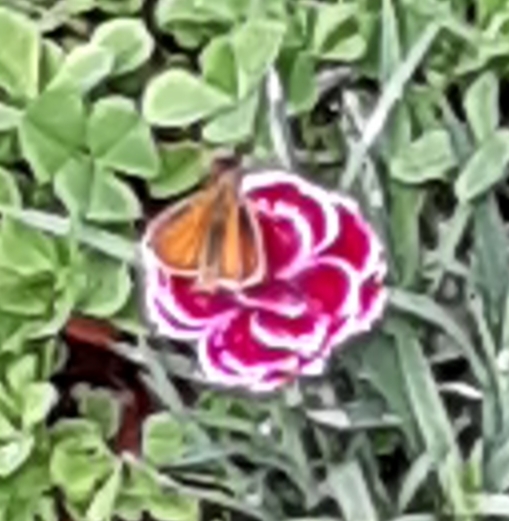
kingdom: Animalia
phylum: Arthropoda
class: Insecta
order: Lepidoptera
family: Hesperiidae
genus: Thymelicus
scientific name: Thymelicus lineola
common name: Essex skipper
